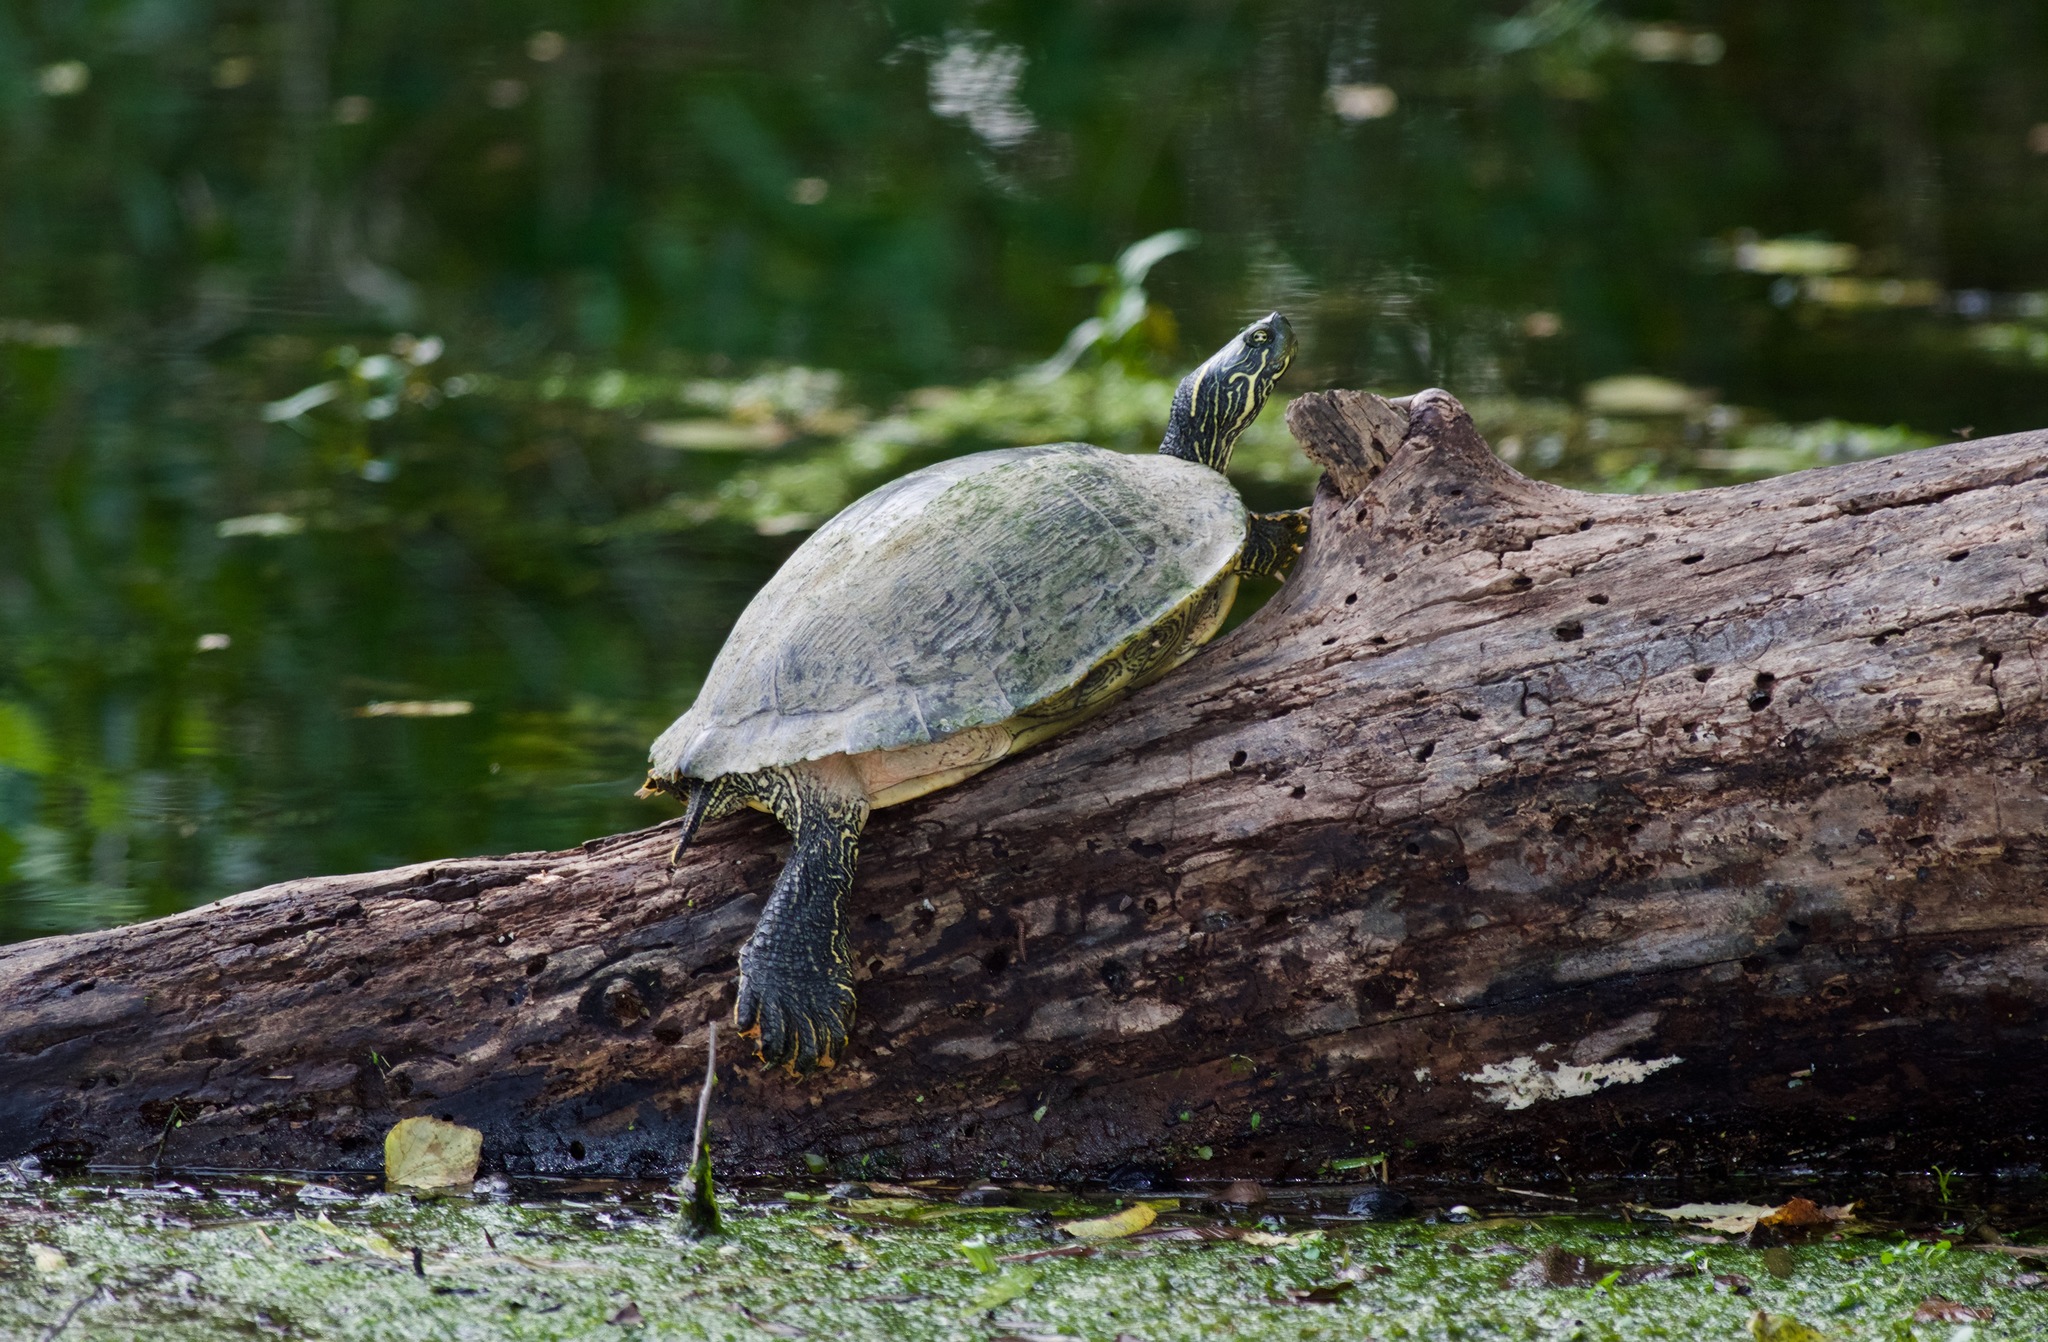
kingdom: Animalia
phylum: Chordata
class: Testudines
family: Emydidae
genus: Pseudemys
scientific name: Pseudemys texana
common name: Texas river cooter
